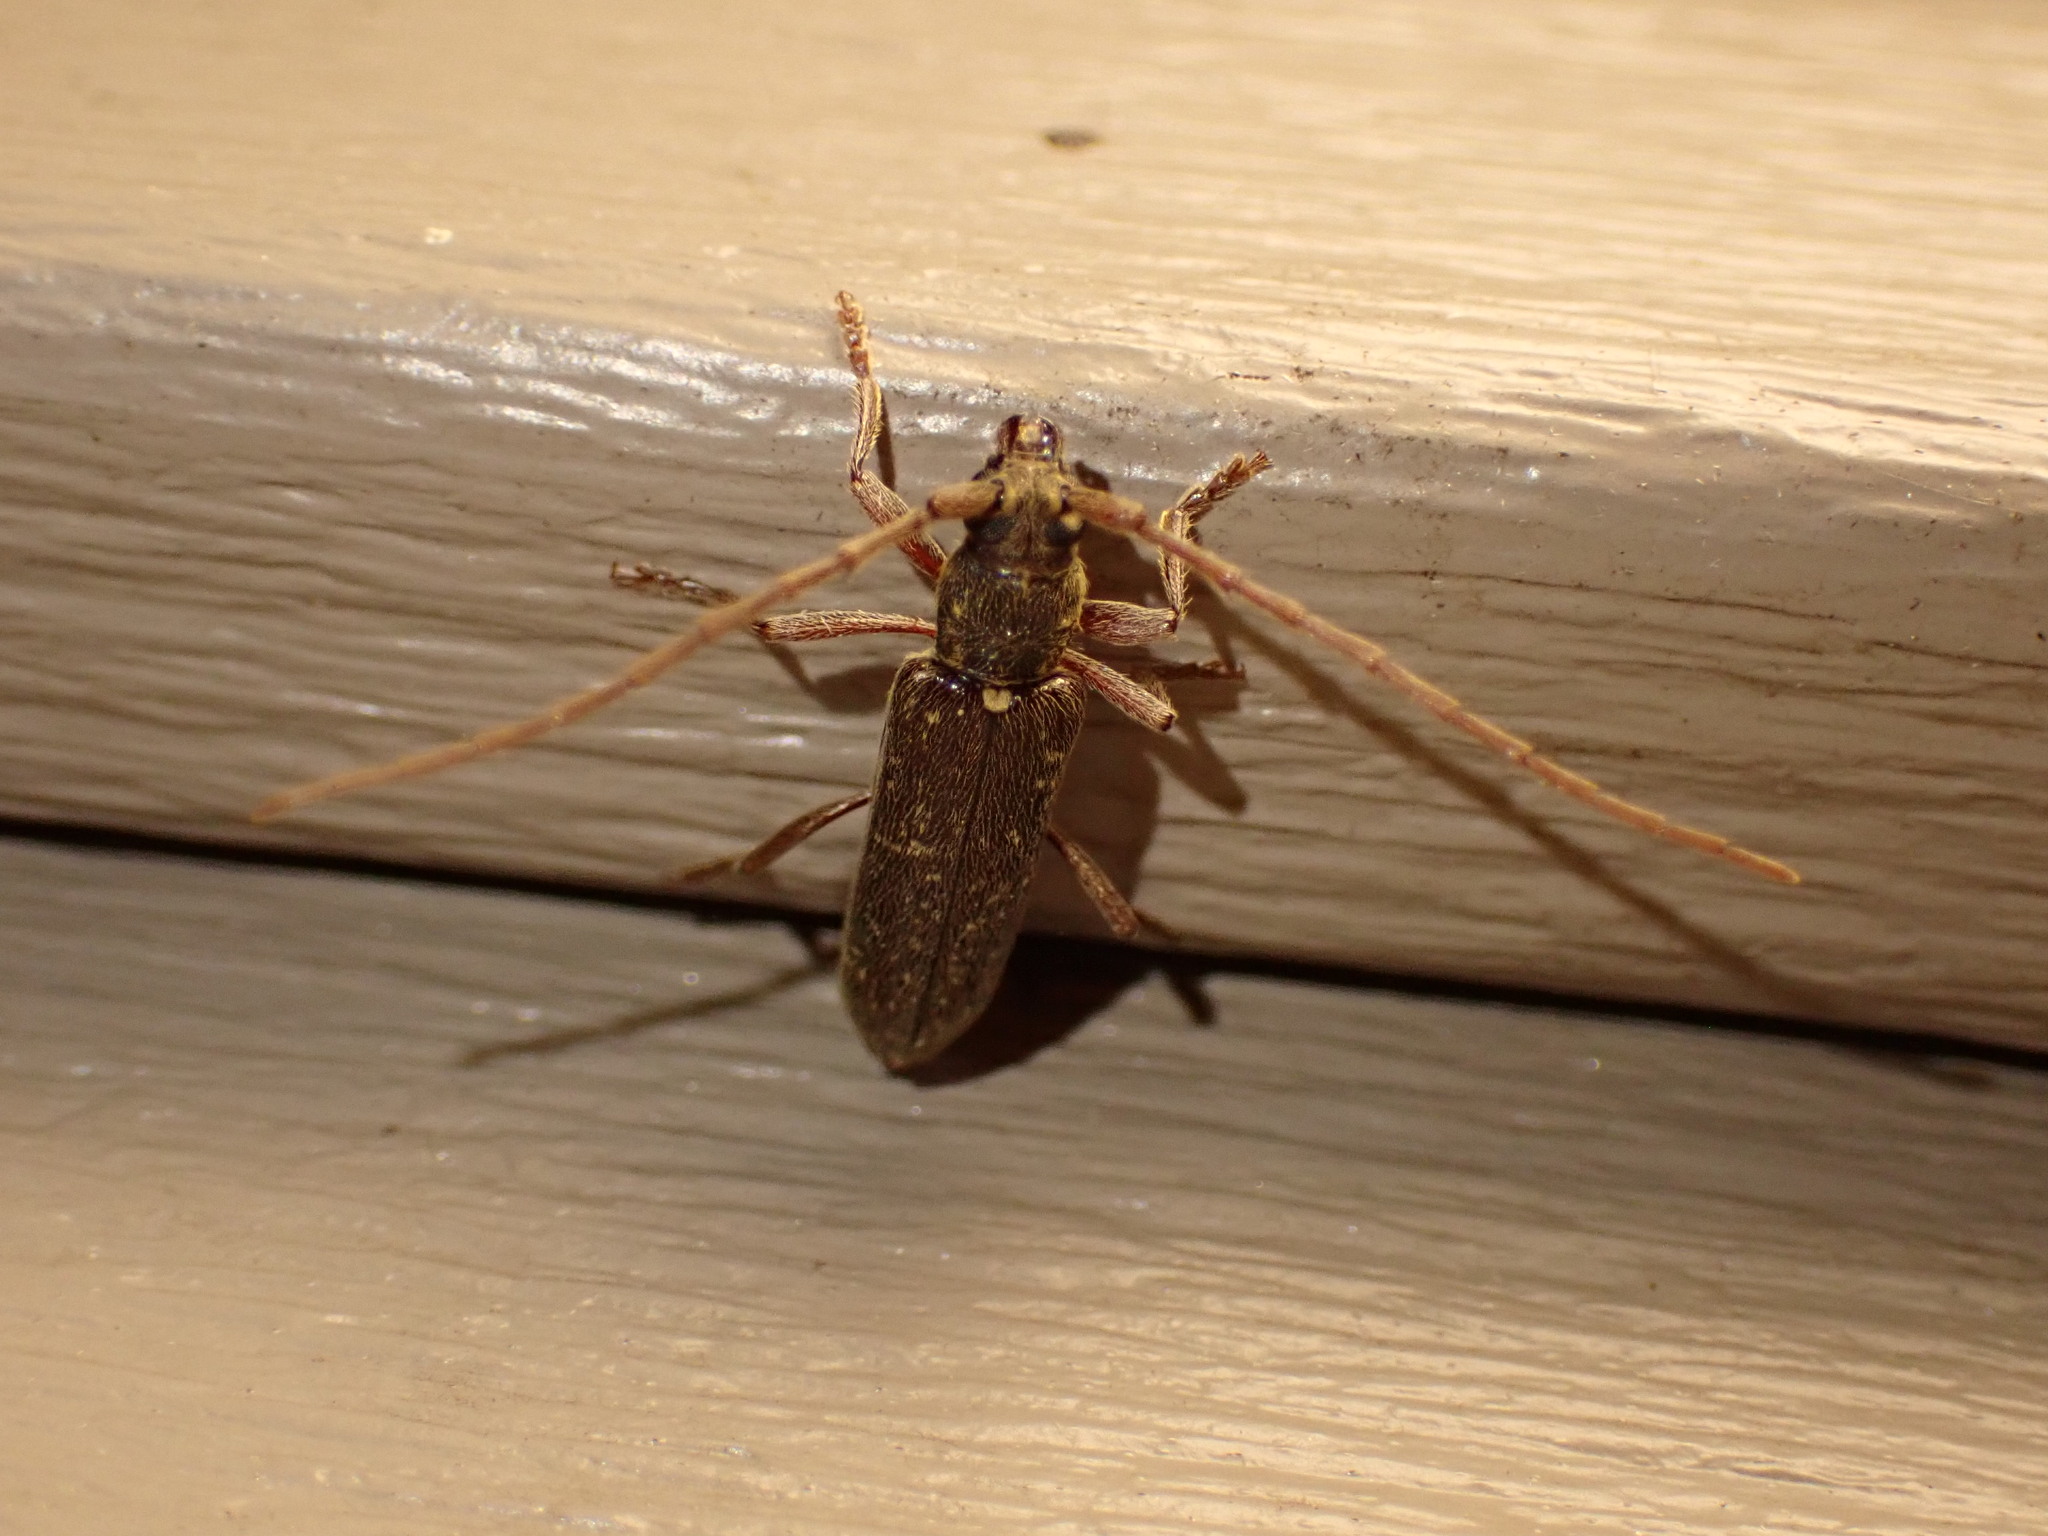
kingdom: Animalia
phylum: Arthropoda
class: Insecta
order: Coleoptera
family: Cerambycidae
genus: Anelaphus
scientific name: Anelaphus villosus
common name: Twig pruner
